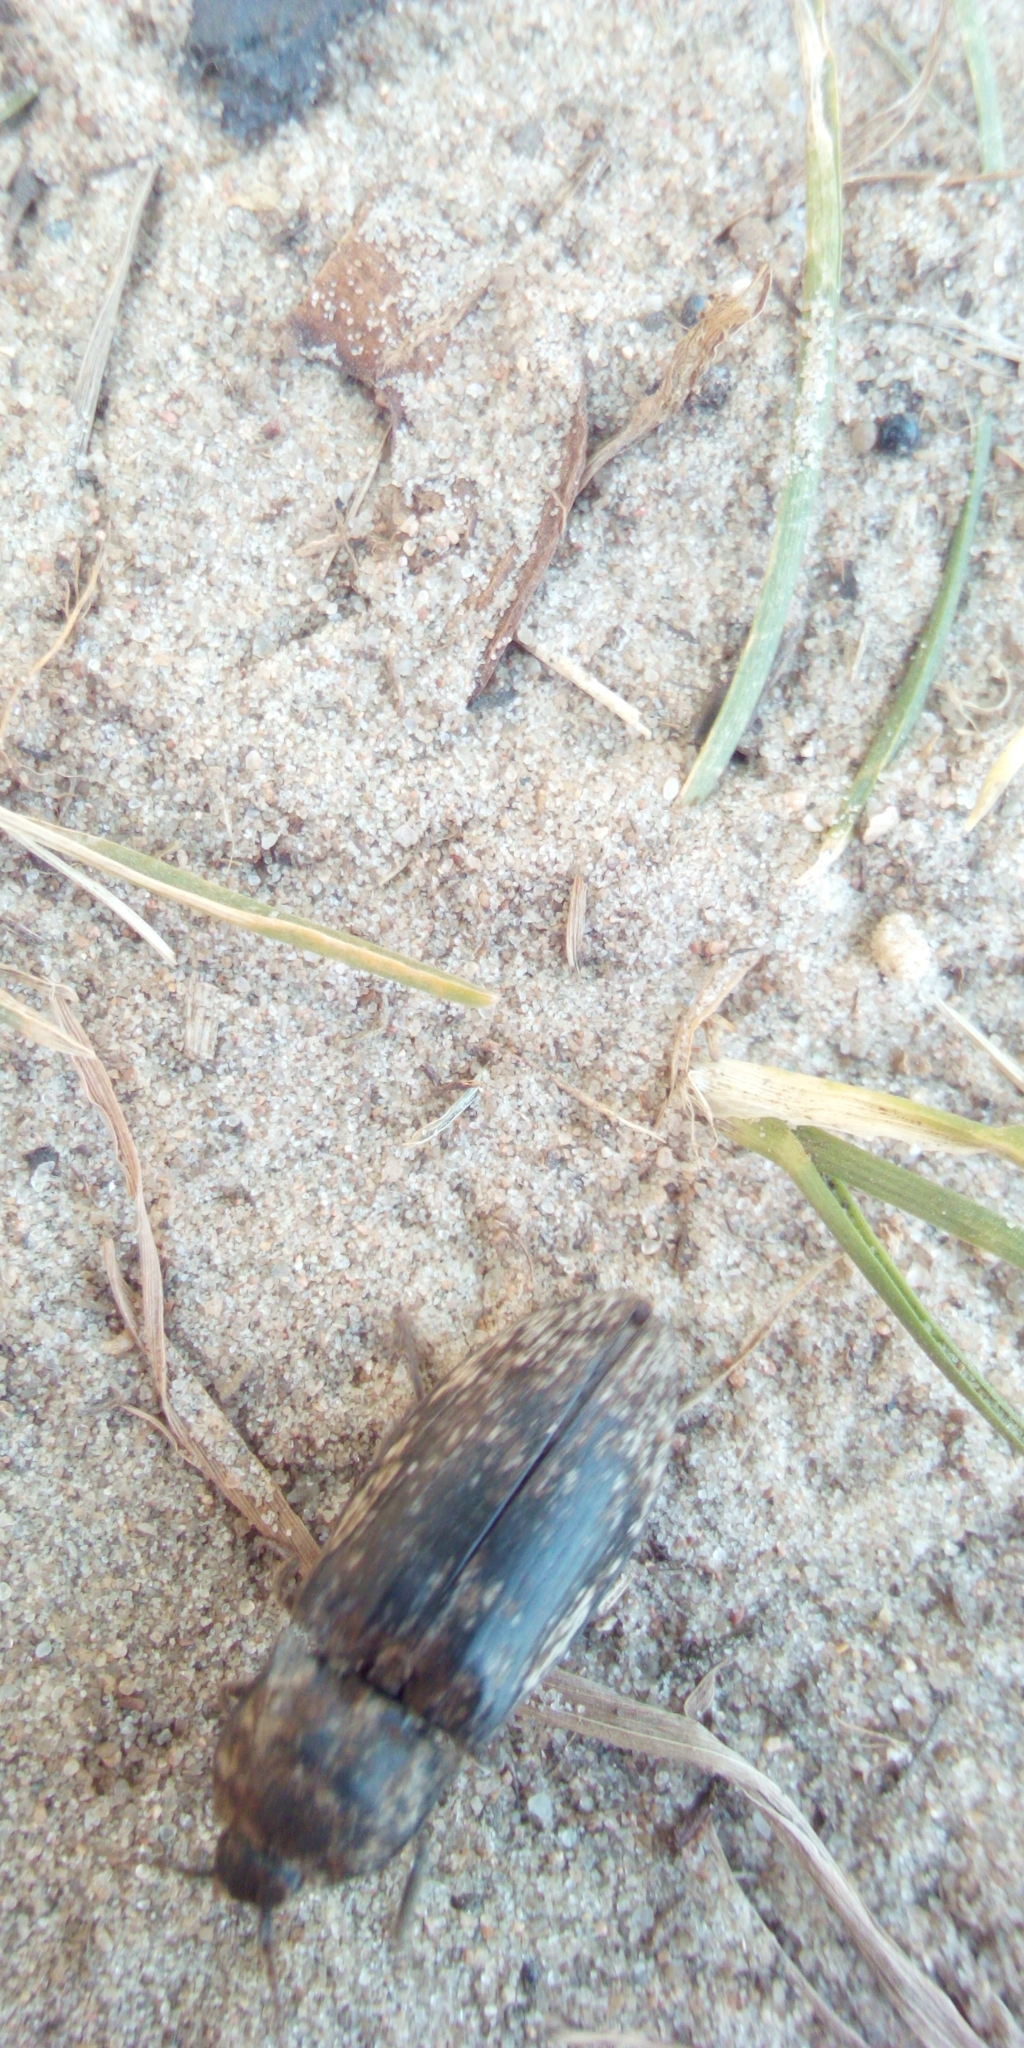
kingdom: Animalia
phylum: Arthropoda
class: Insecta
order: Coleoptera
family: Elateridae
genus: Agrypnus
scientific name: Agrypnus murinus
